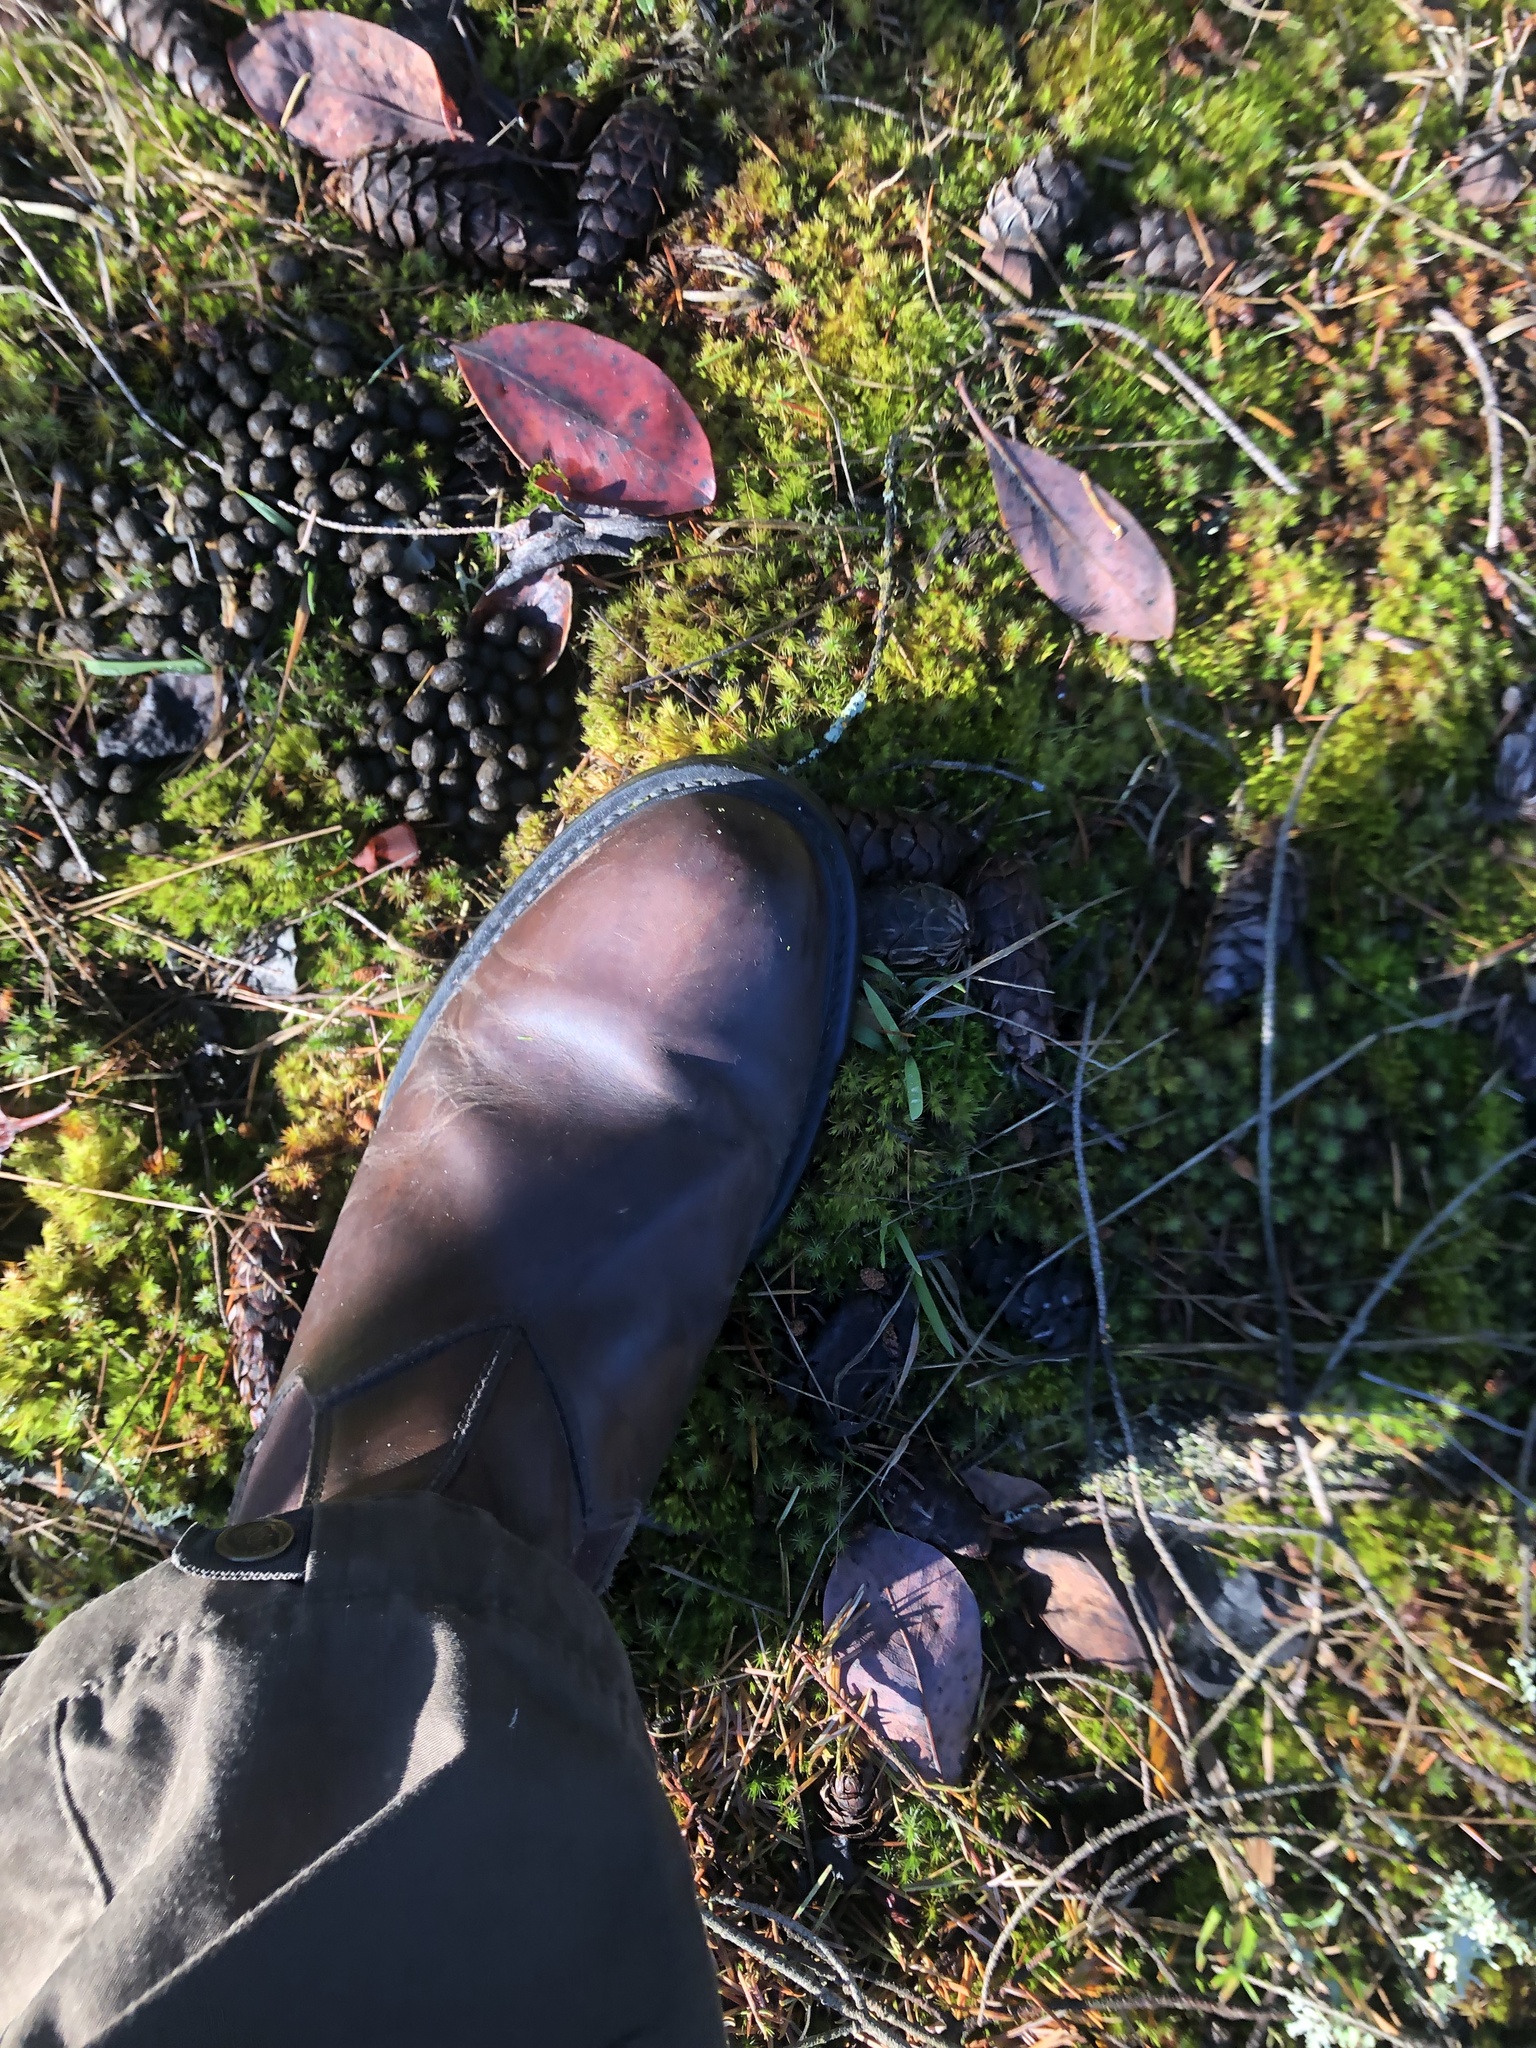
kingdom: Animalia
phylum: Chordata
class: Mammalia
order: Artiodactyla
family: Cervidae
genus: Odocoileus
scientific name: Odocoileus hemionus
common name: Mule deer
